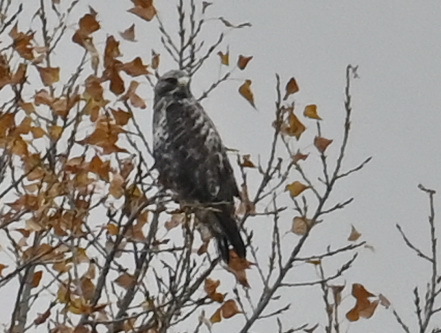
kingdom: Animalia
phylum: Chordata
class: Aves
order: Accipitriformes
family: Accipitridae
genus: Buteo
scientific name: Buteo lagopus
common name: Rough-legged buzzard
